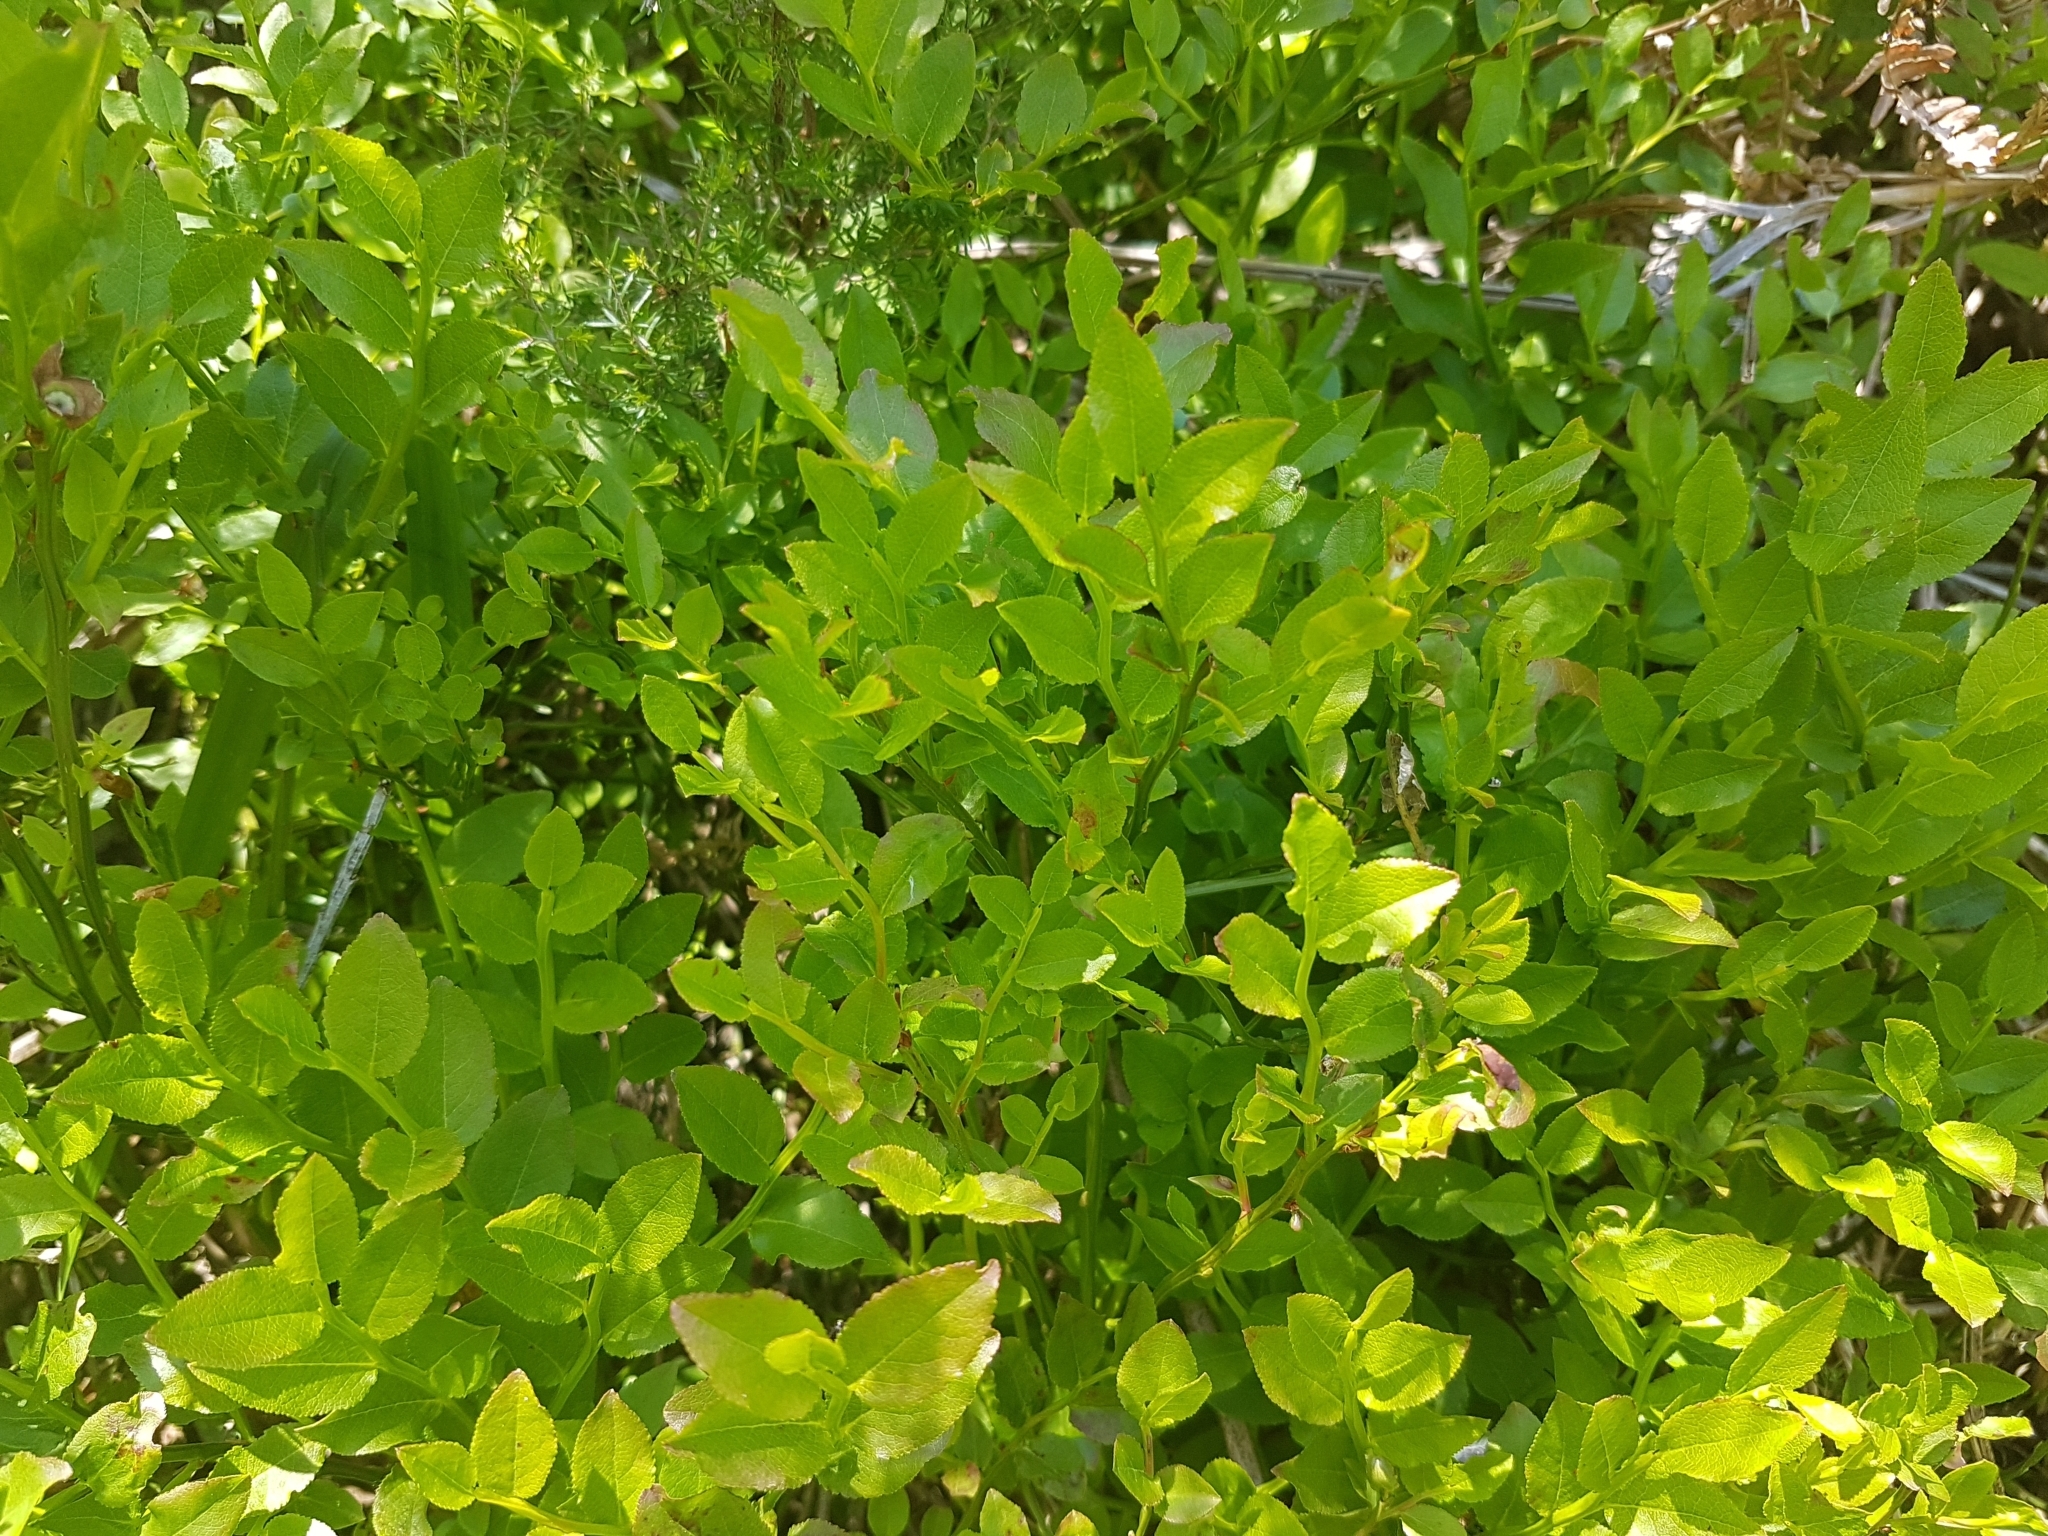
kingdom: Plantae
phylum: Tracheophyta
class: Magnoliopsida
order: Ericales
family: Ericaceae
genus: Vaccinium
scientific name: Vaccinium myrtillus
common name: Bilberry
